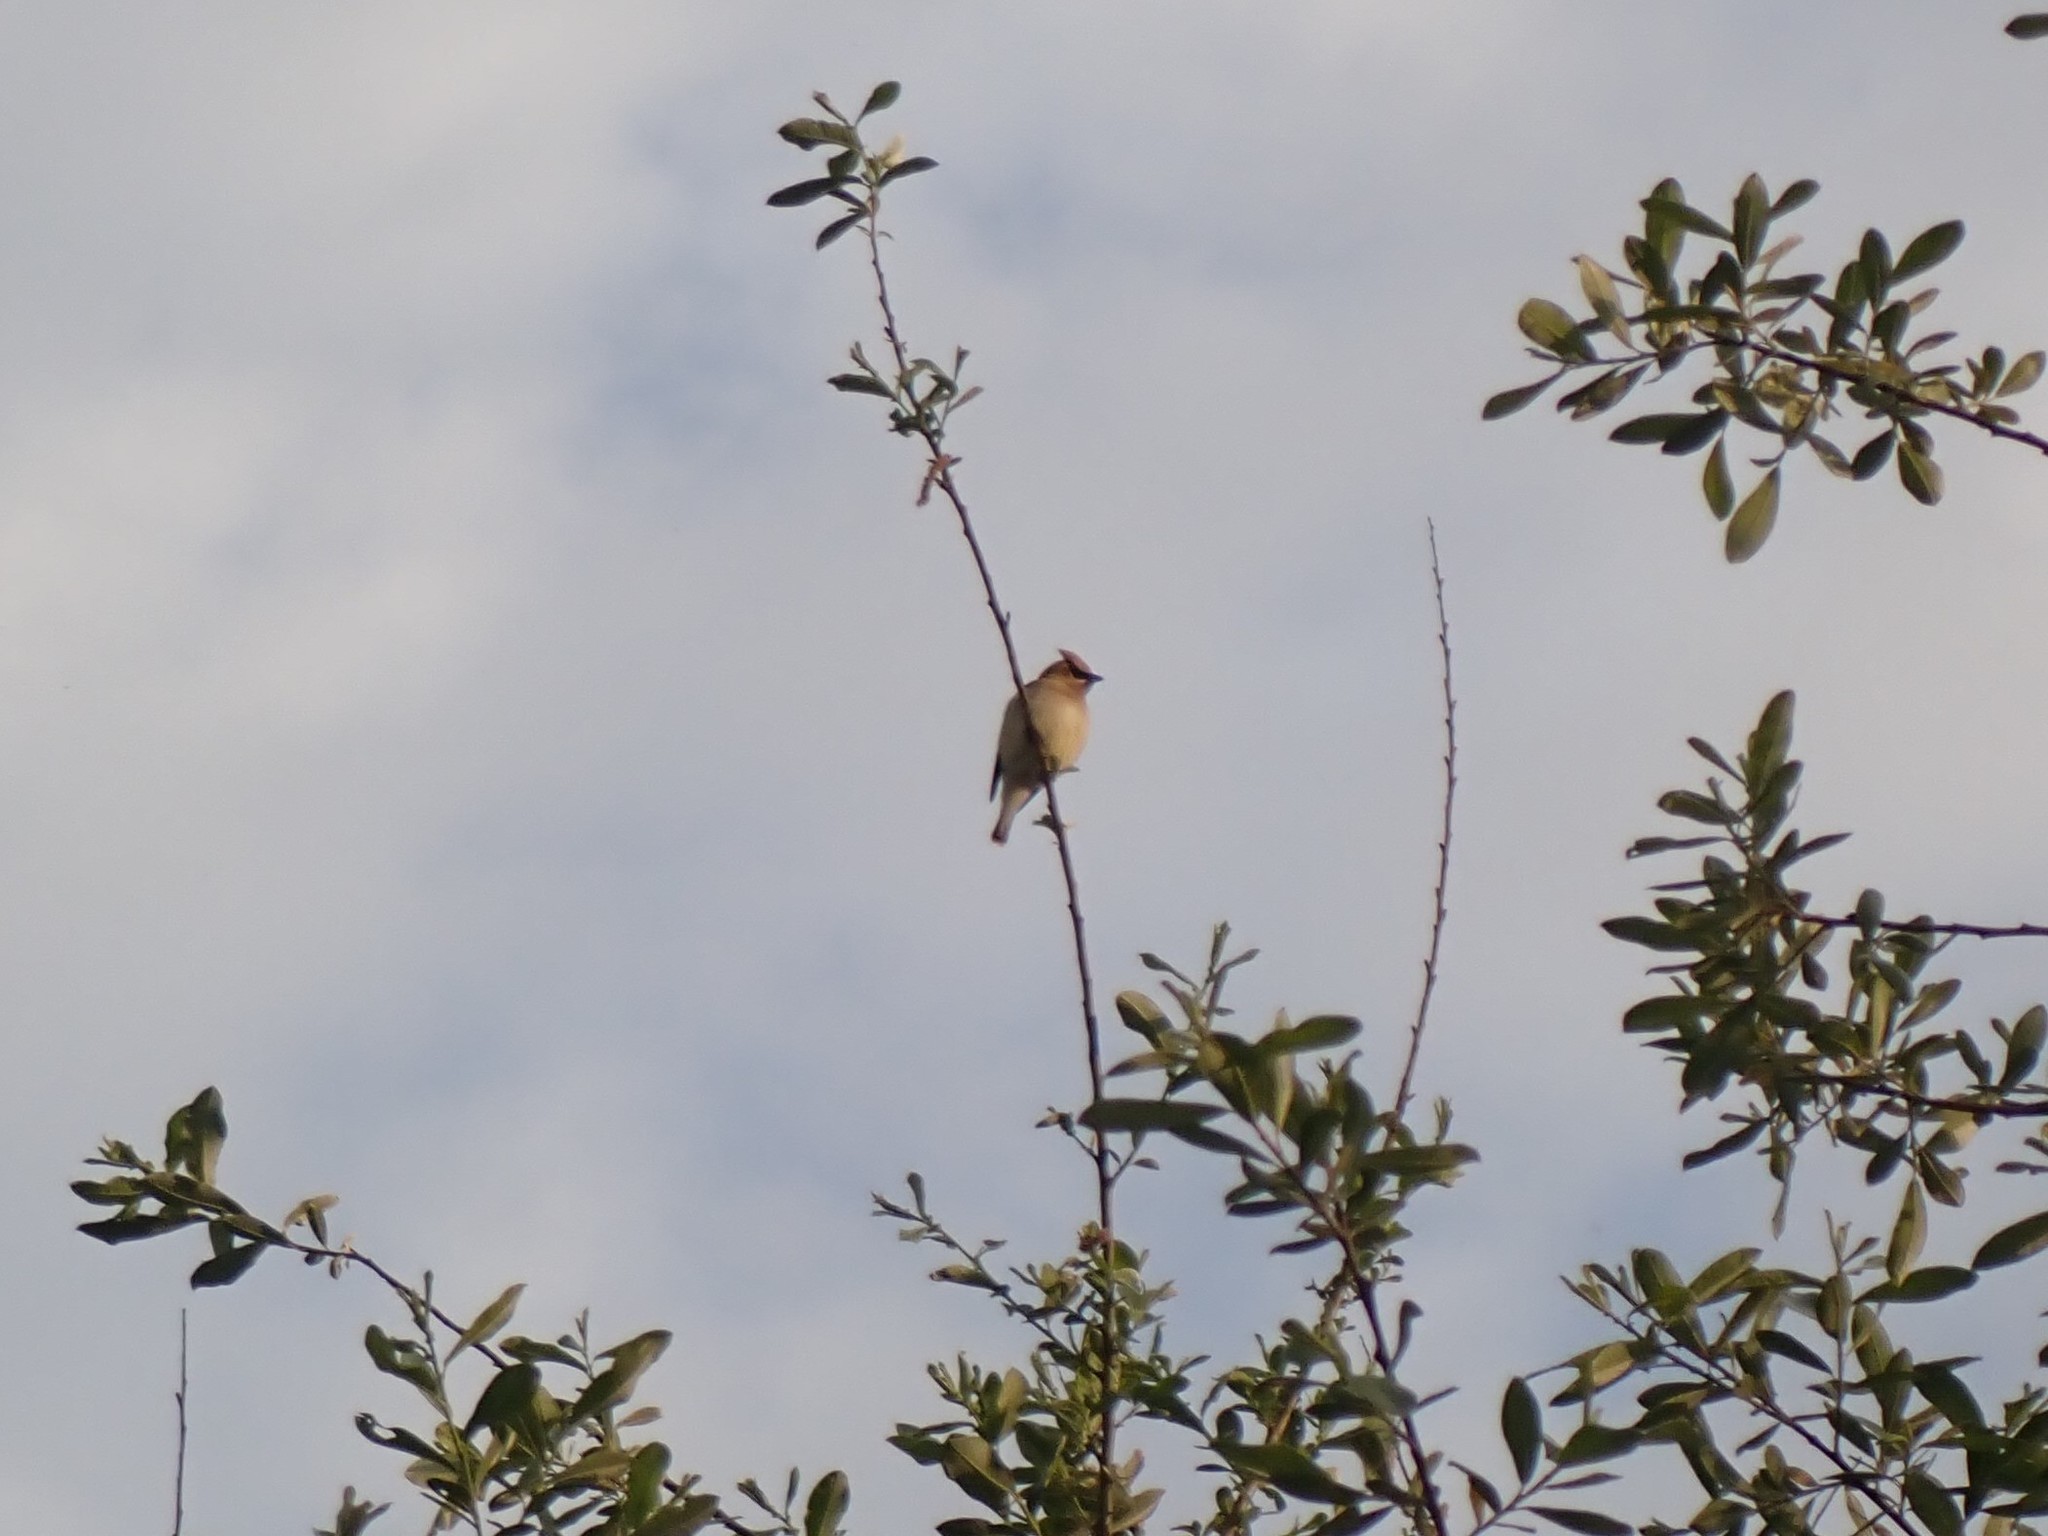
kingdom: Animalia
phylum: Chordata
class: Aves
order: Passeriformes
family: Bombycillidae
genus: Bombycilla
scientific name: Bombycilla cedrorum
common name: Cedar waxwing
